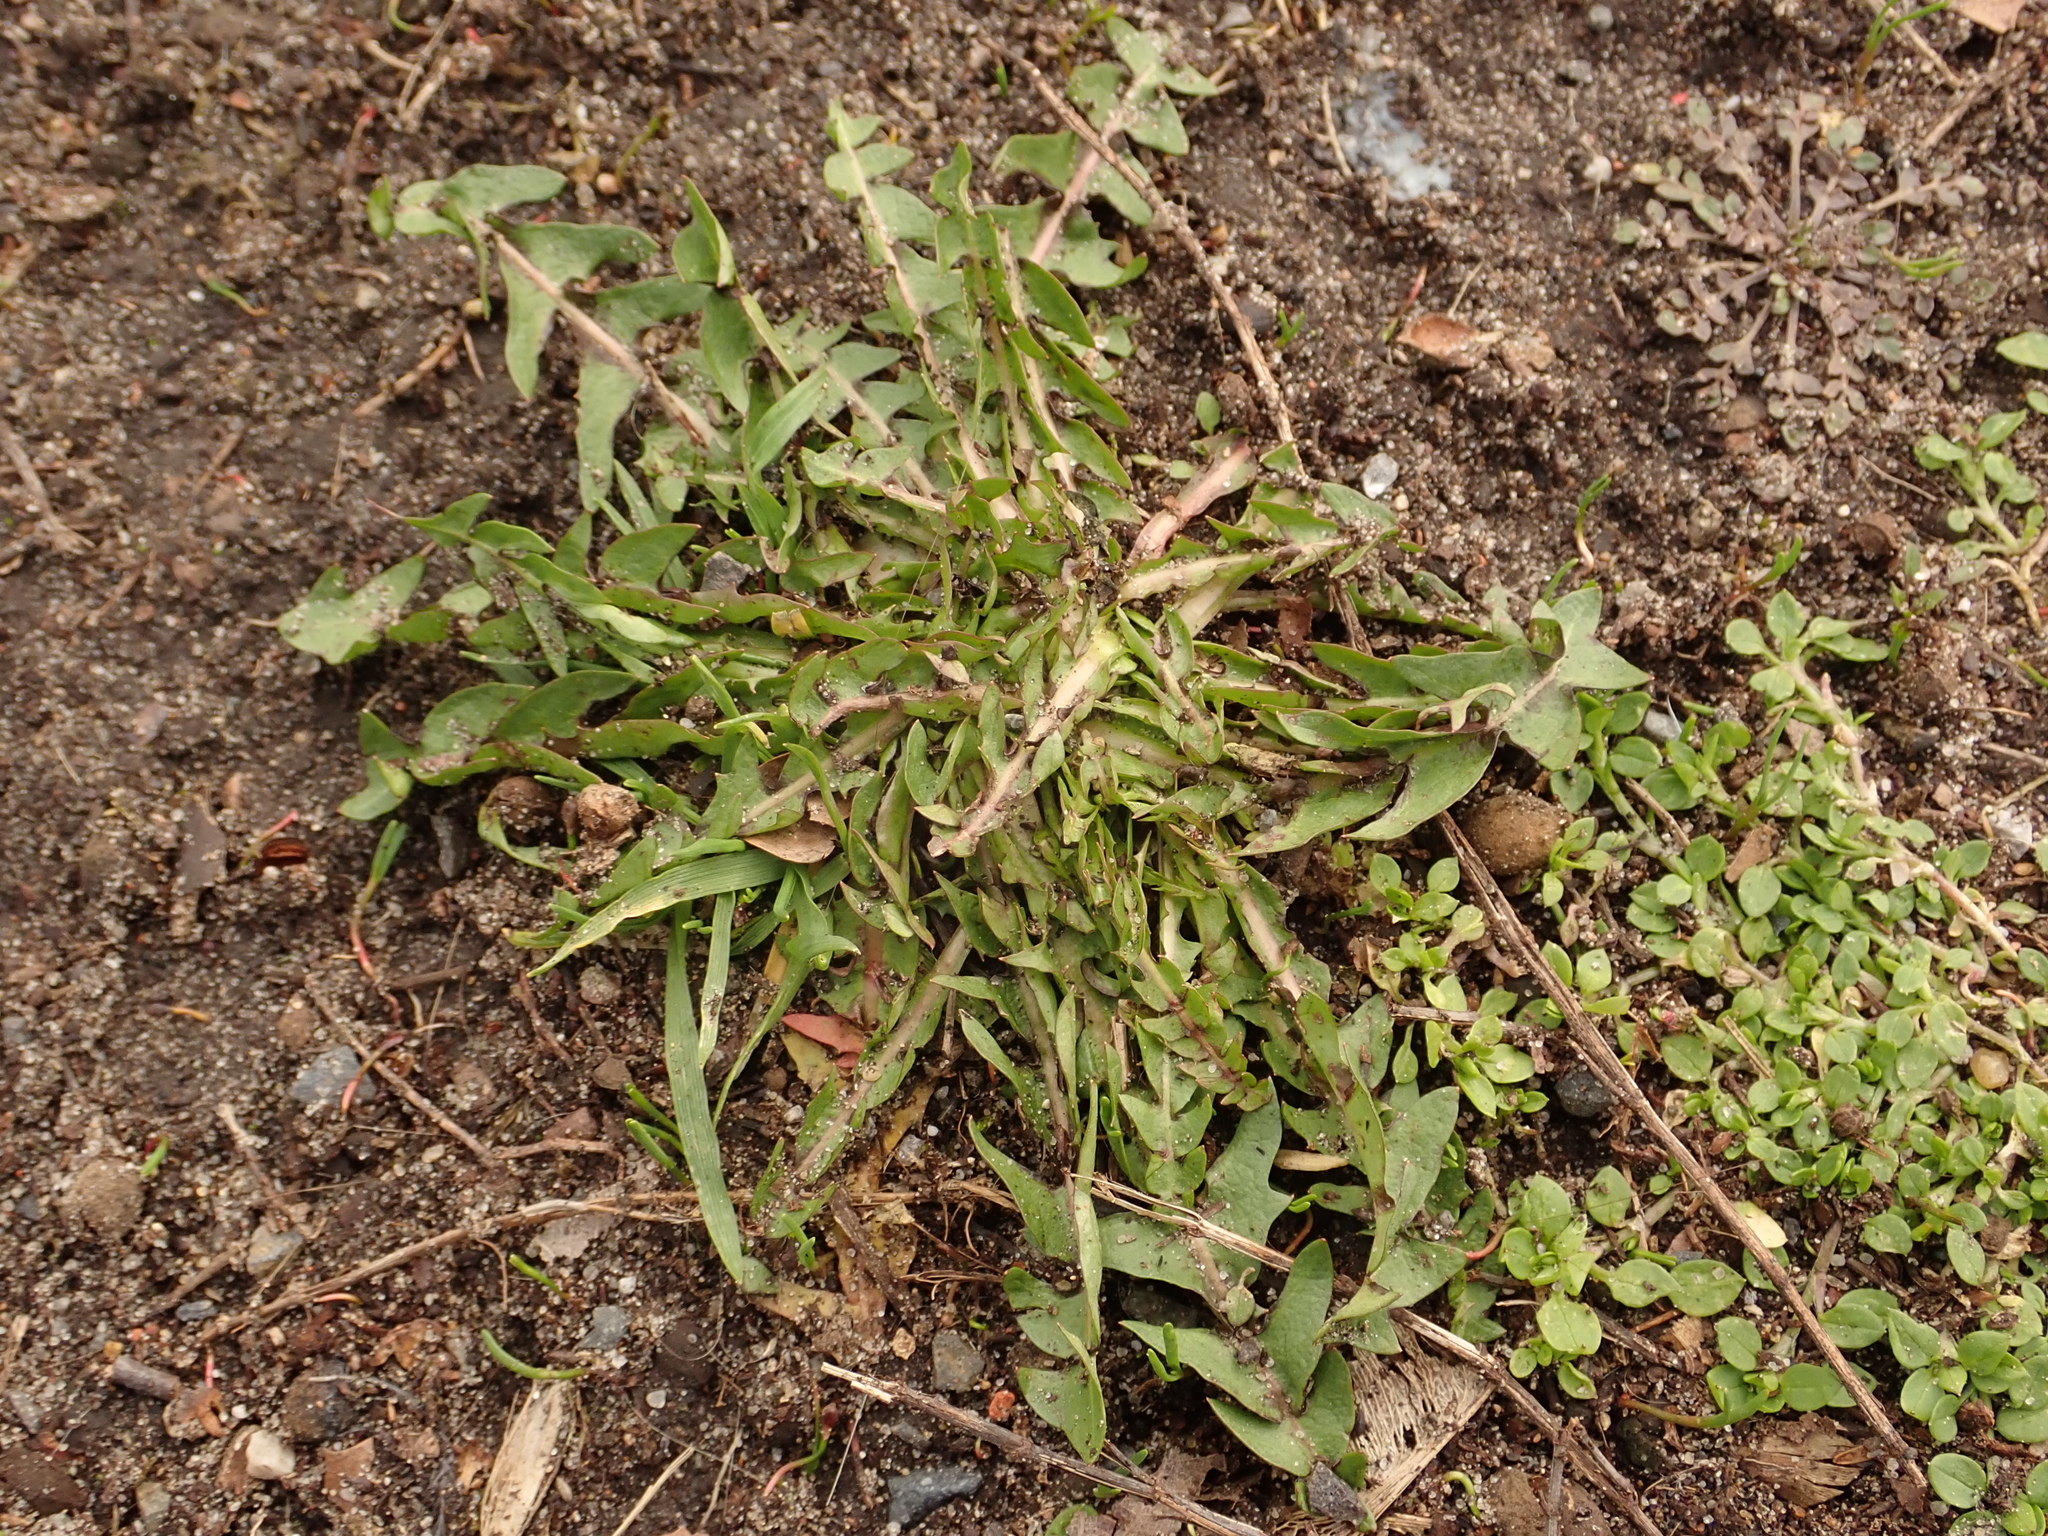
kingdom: Plantae
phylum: Tracheophyta
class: Magnoliopsida
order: Asterales
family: Asteraceae
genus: Taraxacum
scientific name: Taraxacum officinale
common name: Common dandelion
